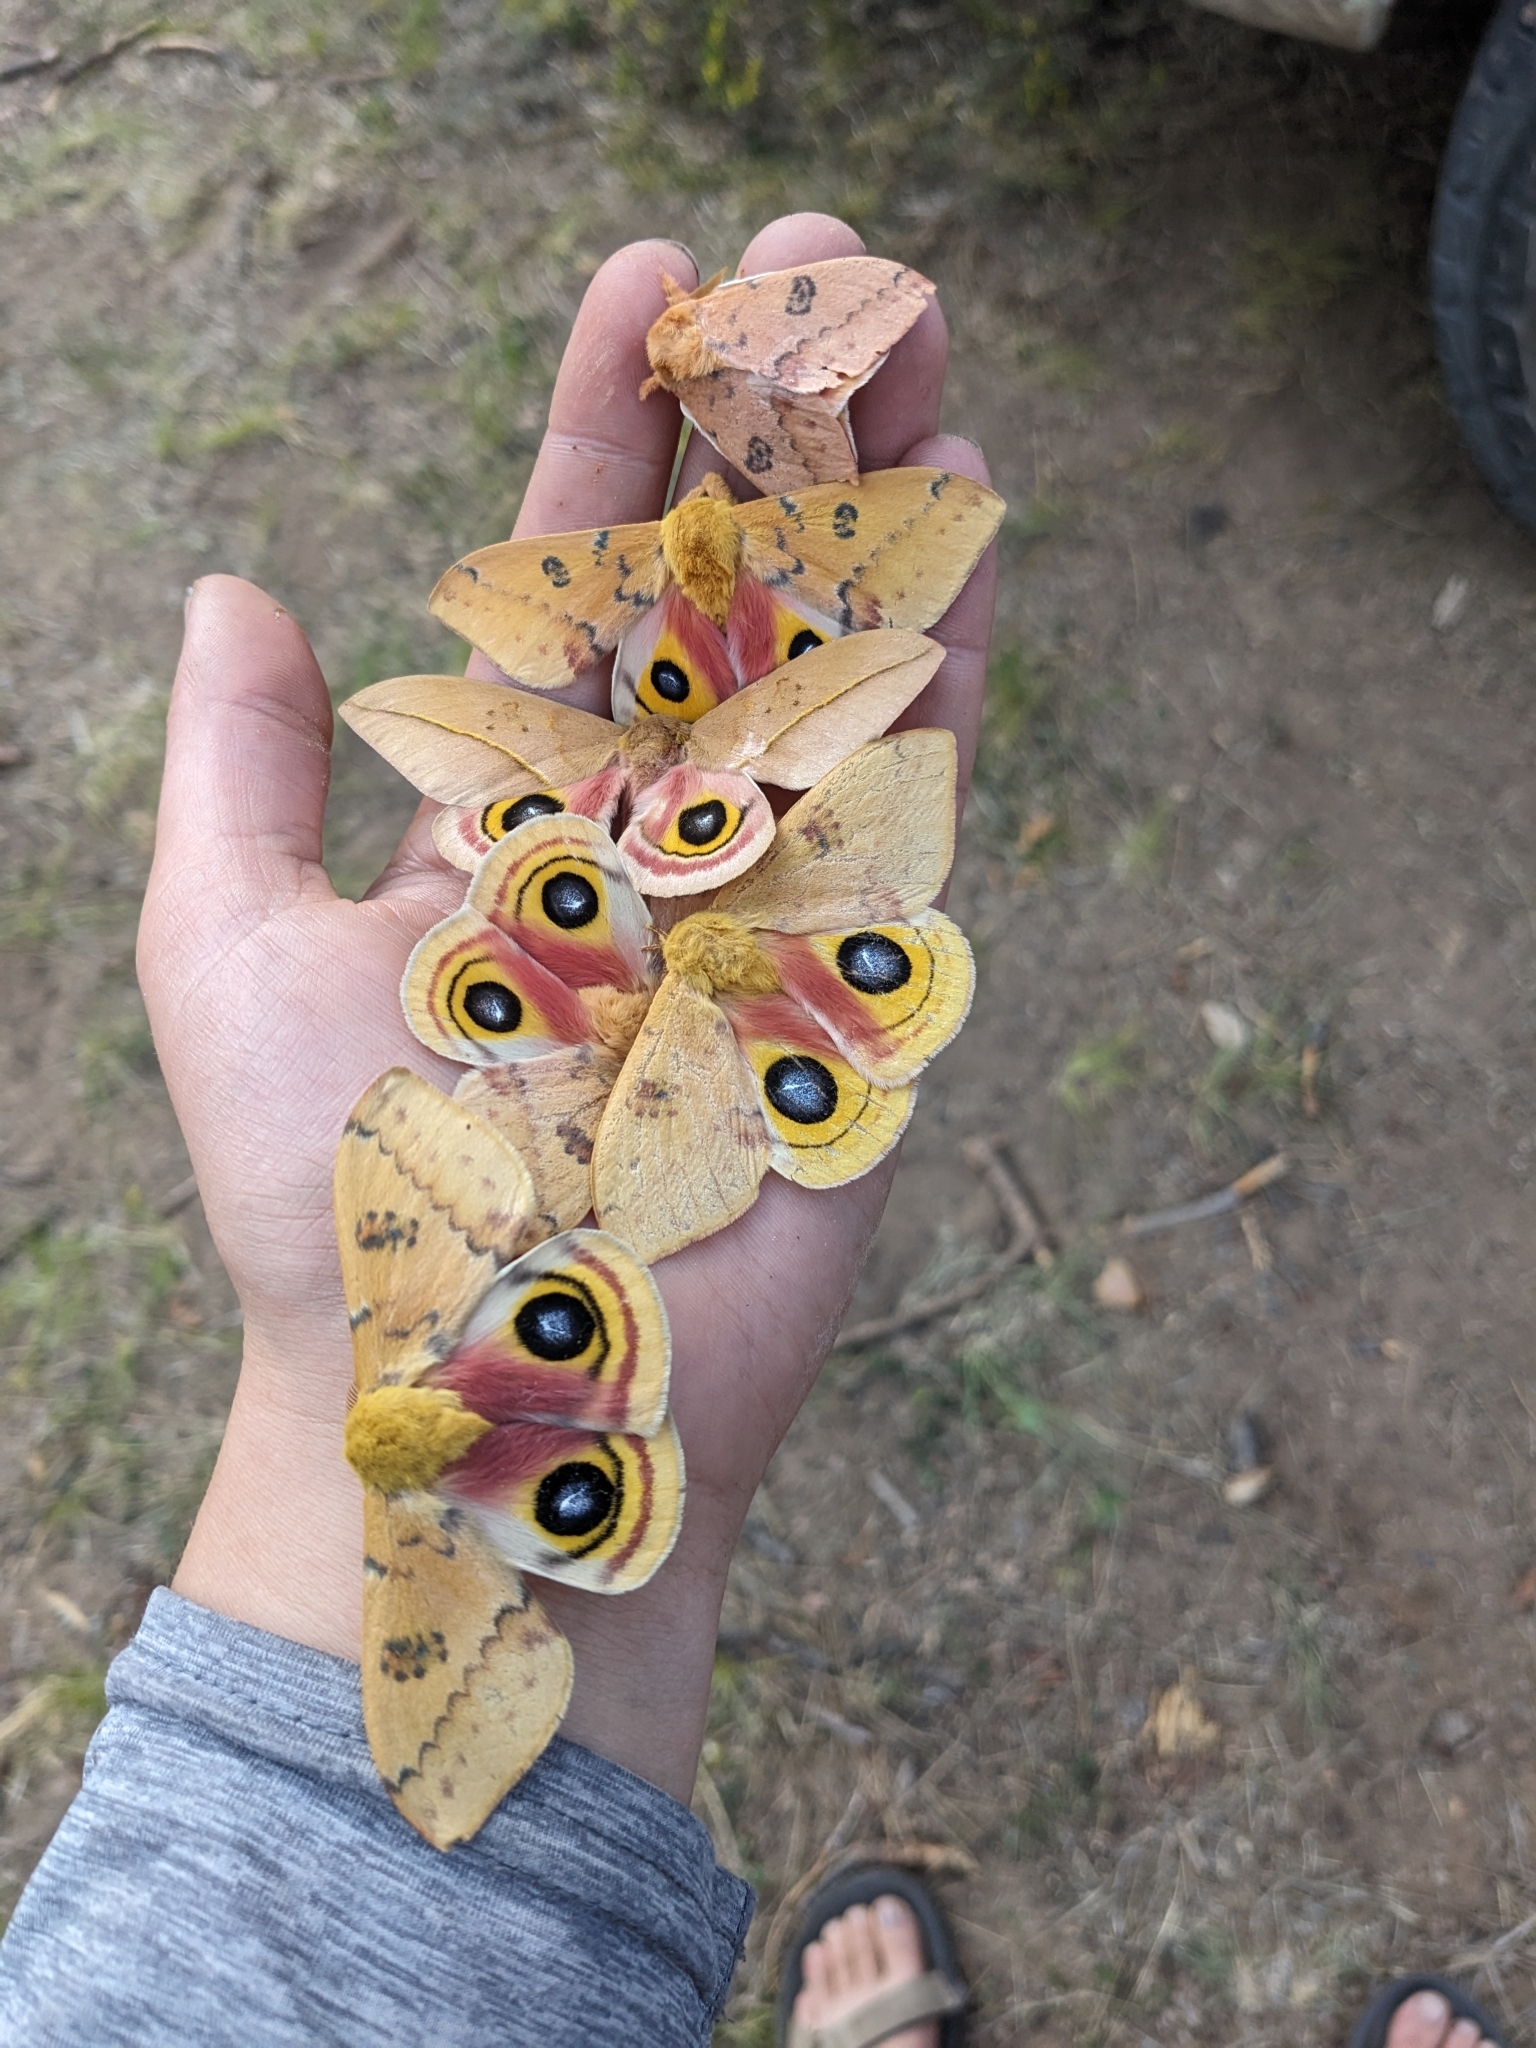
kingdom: Animalia
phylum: Arthropoda
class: Insecta
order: Lepidoptera
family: Saturniidae
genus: Automeris
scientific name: Automeris io
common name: Io moth
